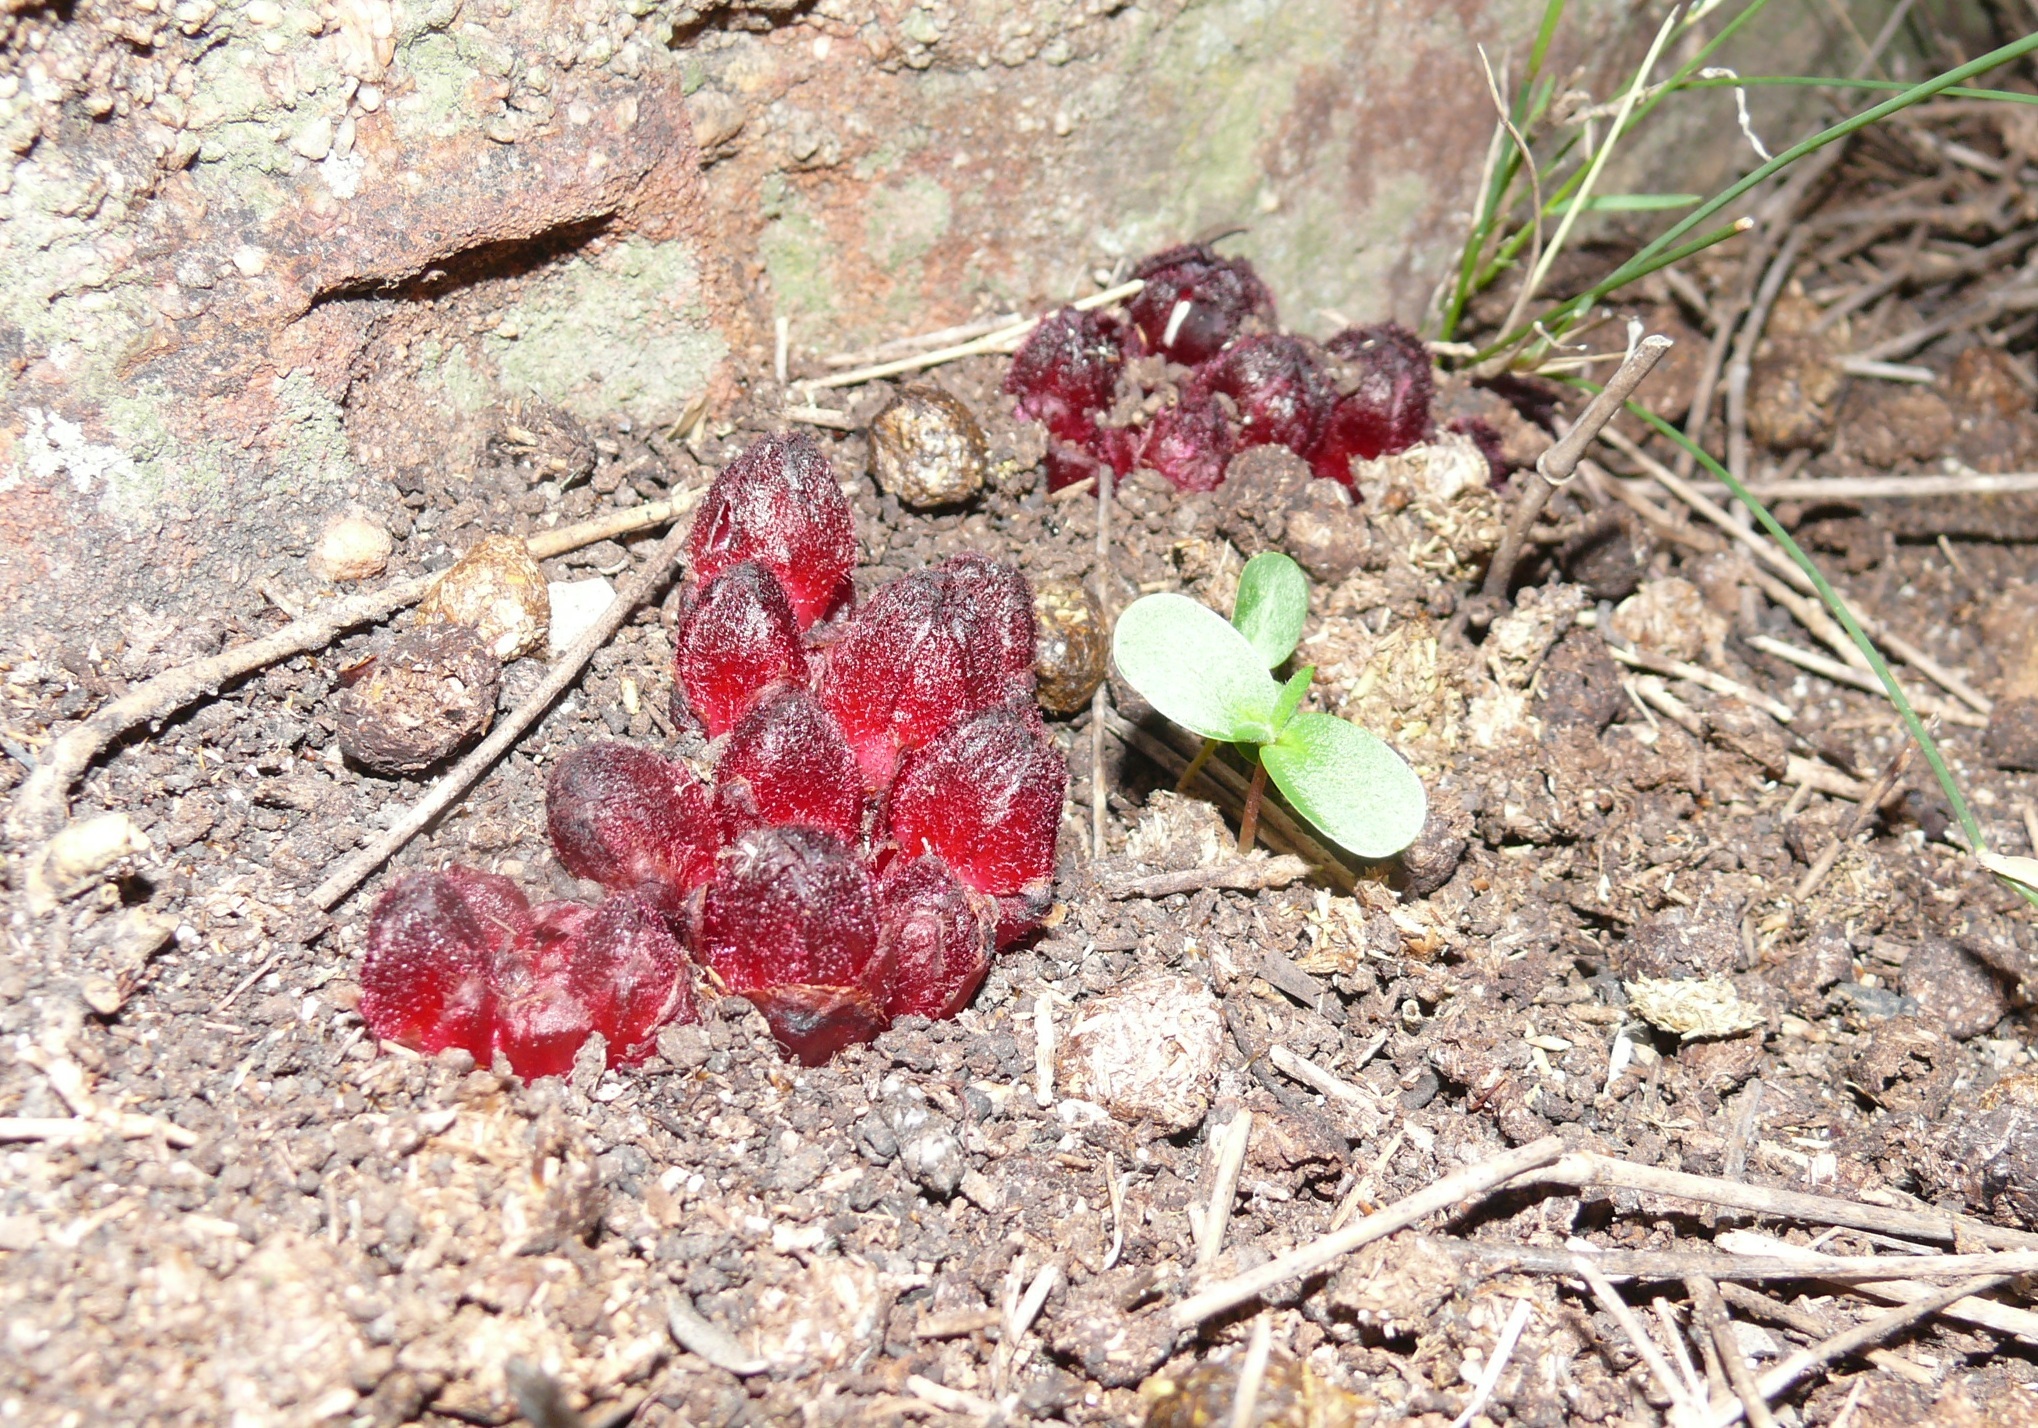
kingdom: Plantae
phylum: Tracheophyta
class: Magnoliopsida
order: Malvales
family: Cytinaceae
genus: Cytinus
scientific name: Cytinus sanguineus
